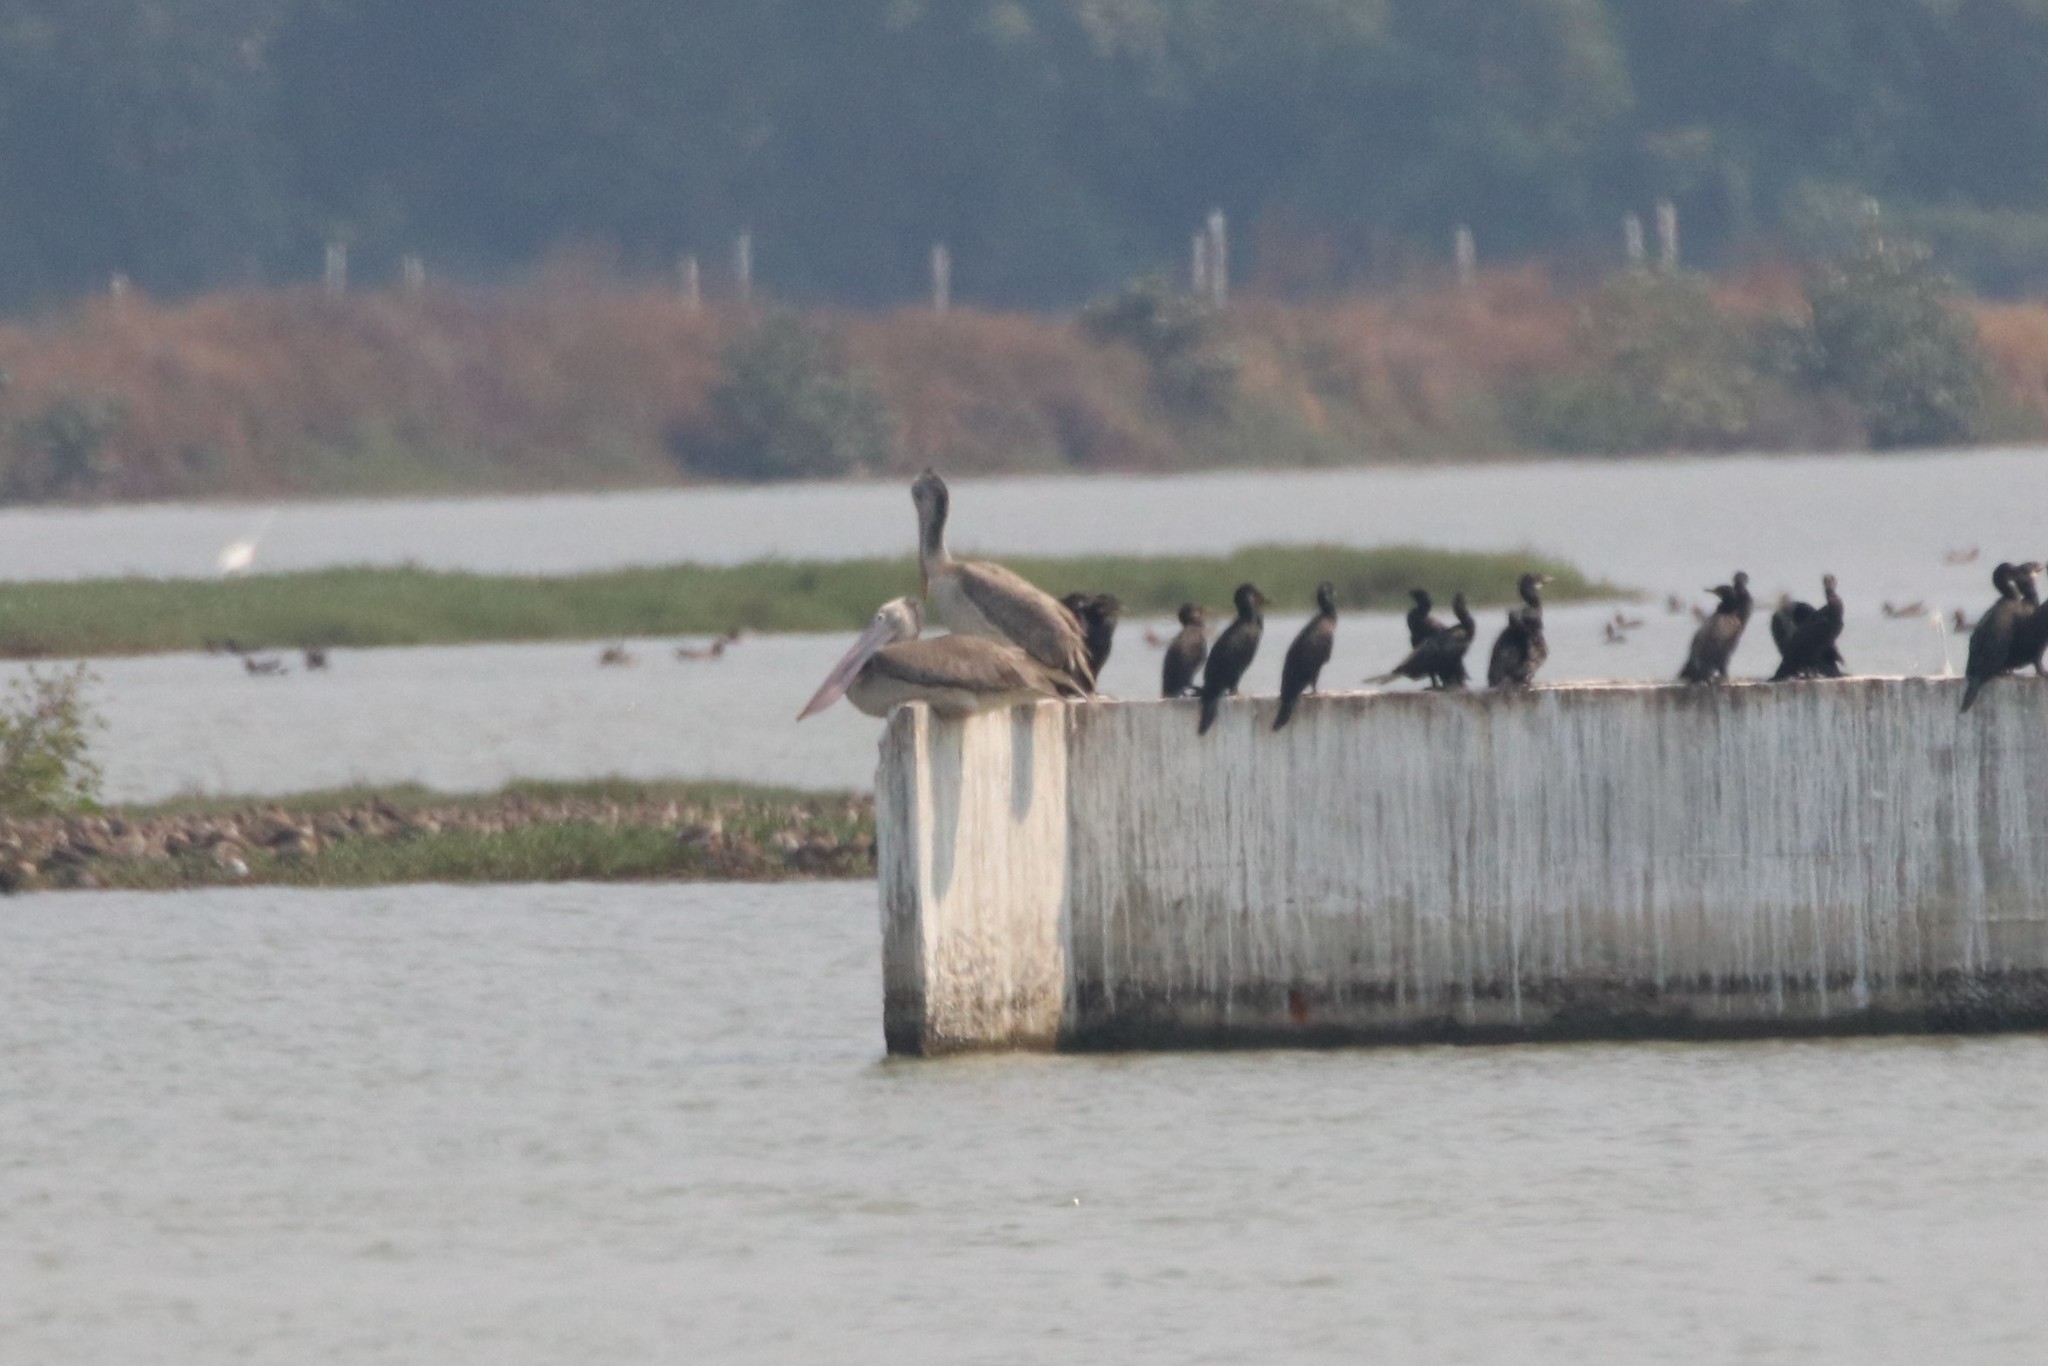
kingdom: Animalia
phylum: Chordata
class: Aves
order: Pelecaniformes
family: Pelecanidae
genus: Pelecanus
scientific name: Pelecanus philippensis
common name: Spot-billed pelican
